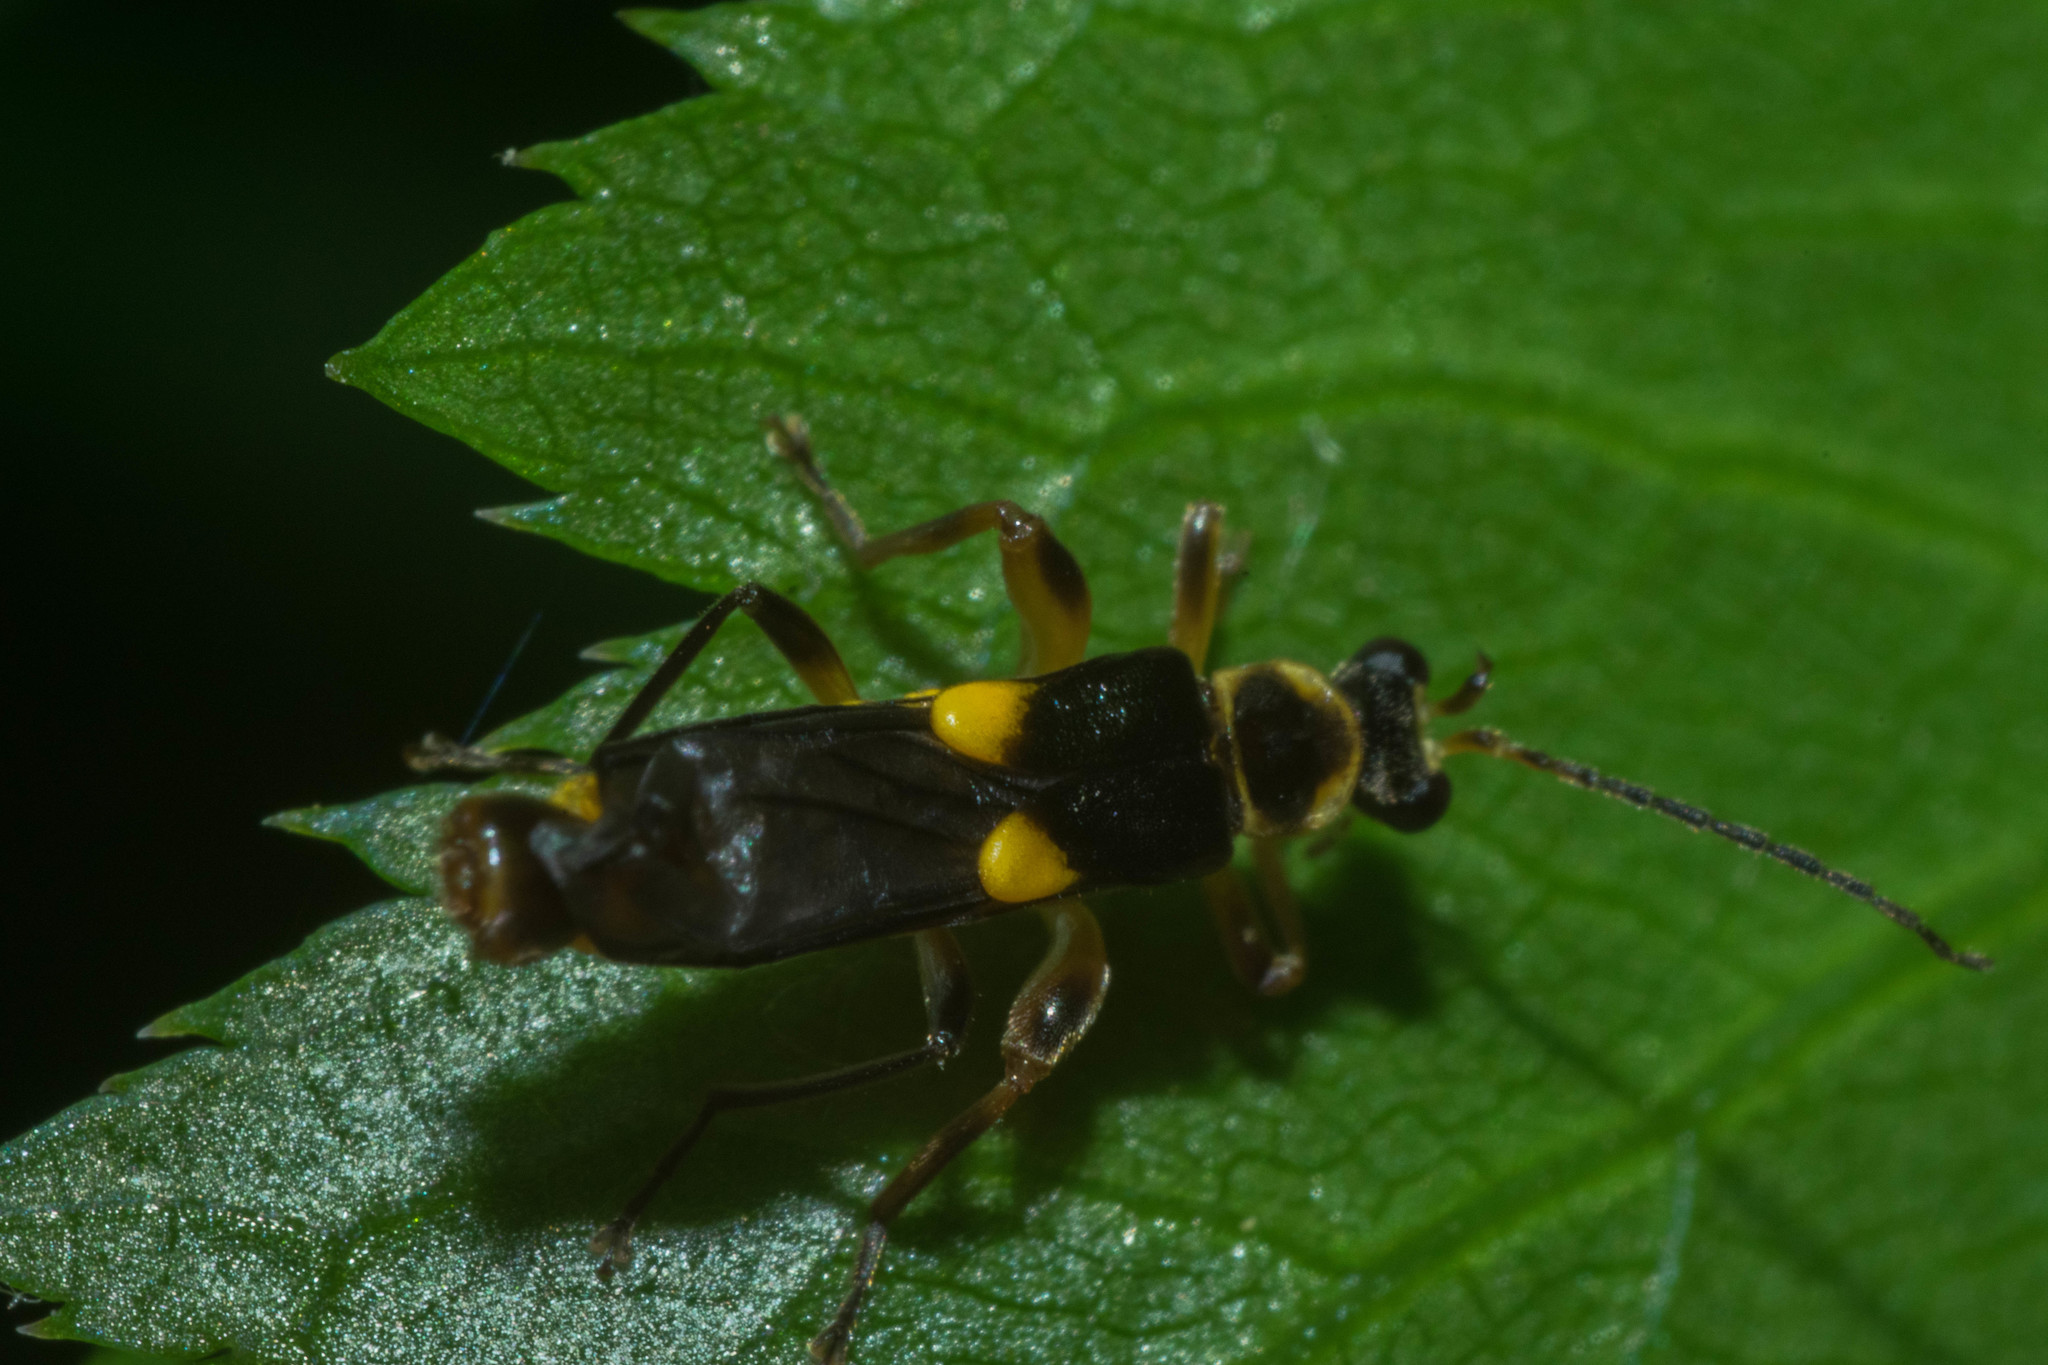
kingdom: Animalia
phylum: Arthropoda
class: Insecta
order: Coleoptera
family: Cantharidae
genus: Trypherus
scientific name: Trypherus latipennis
